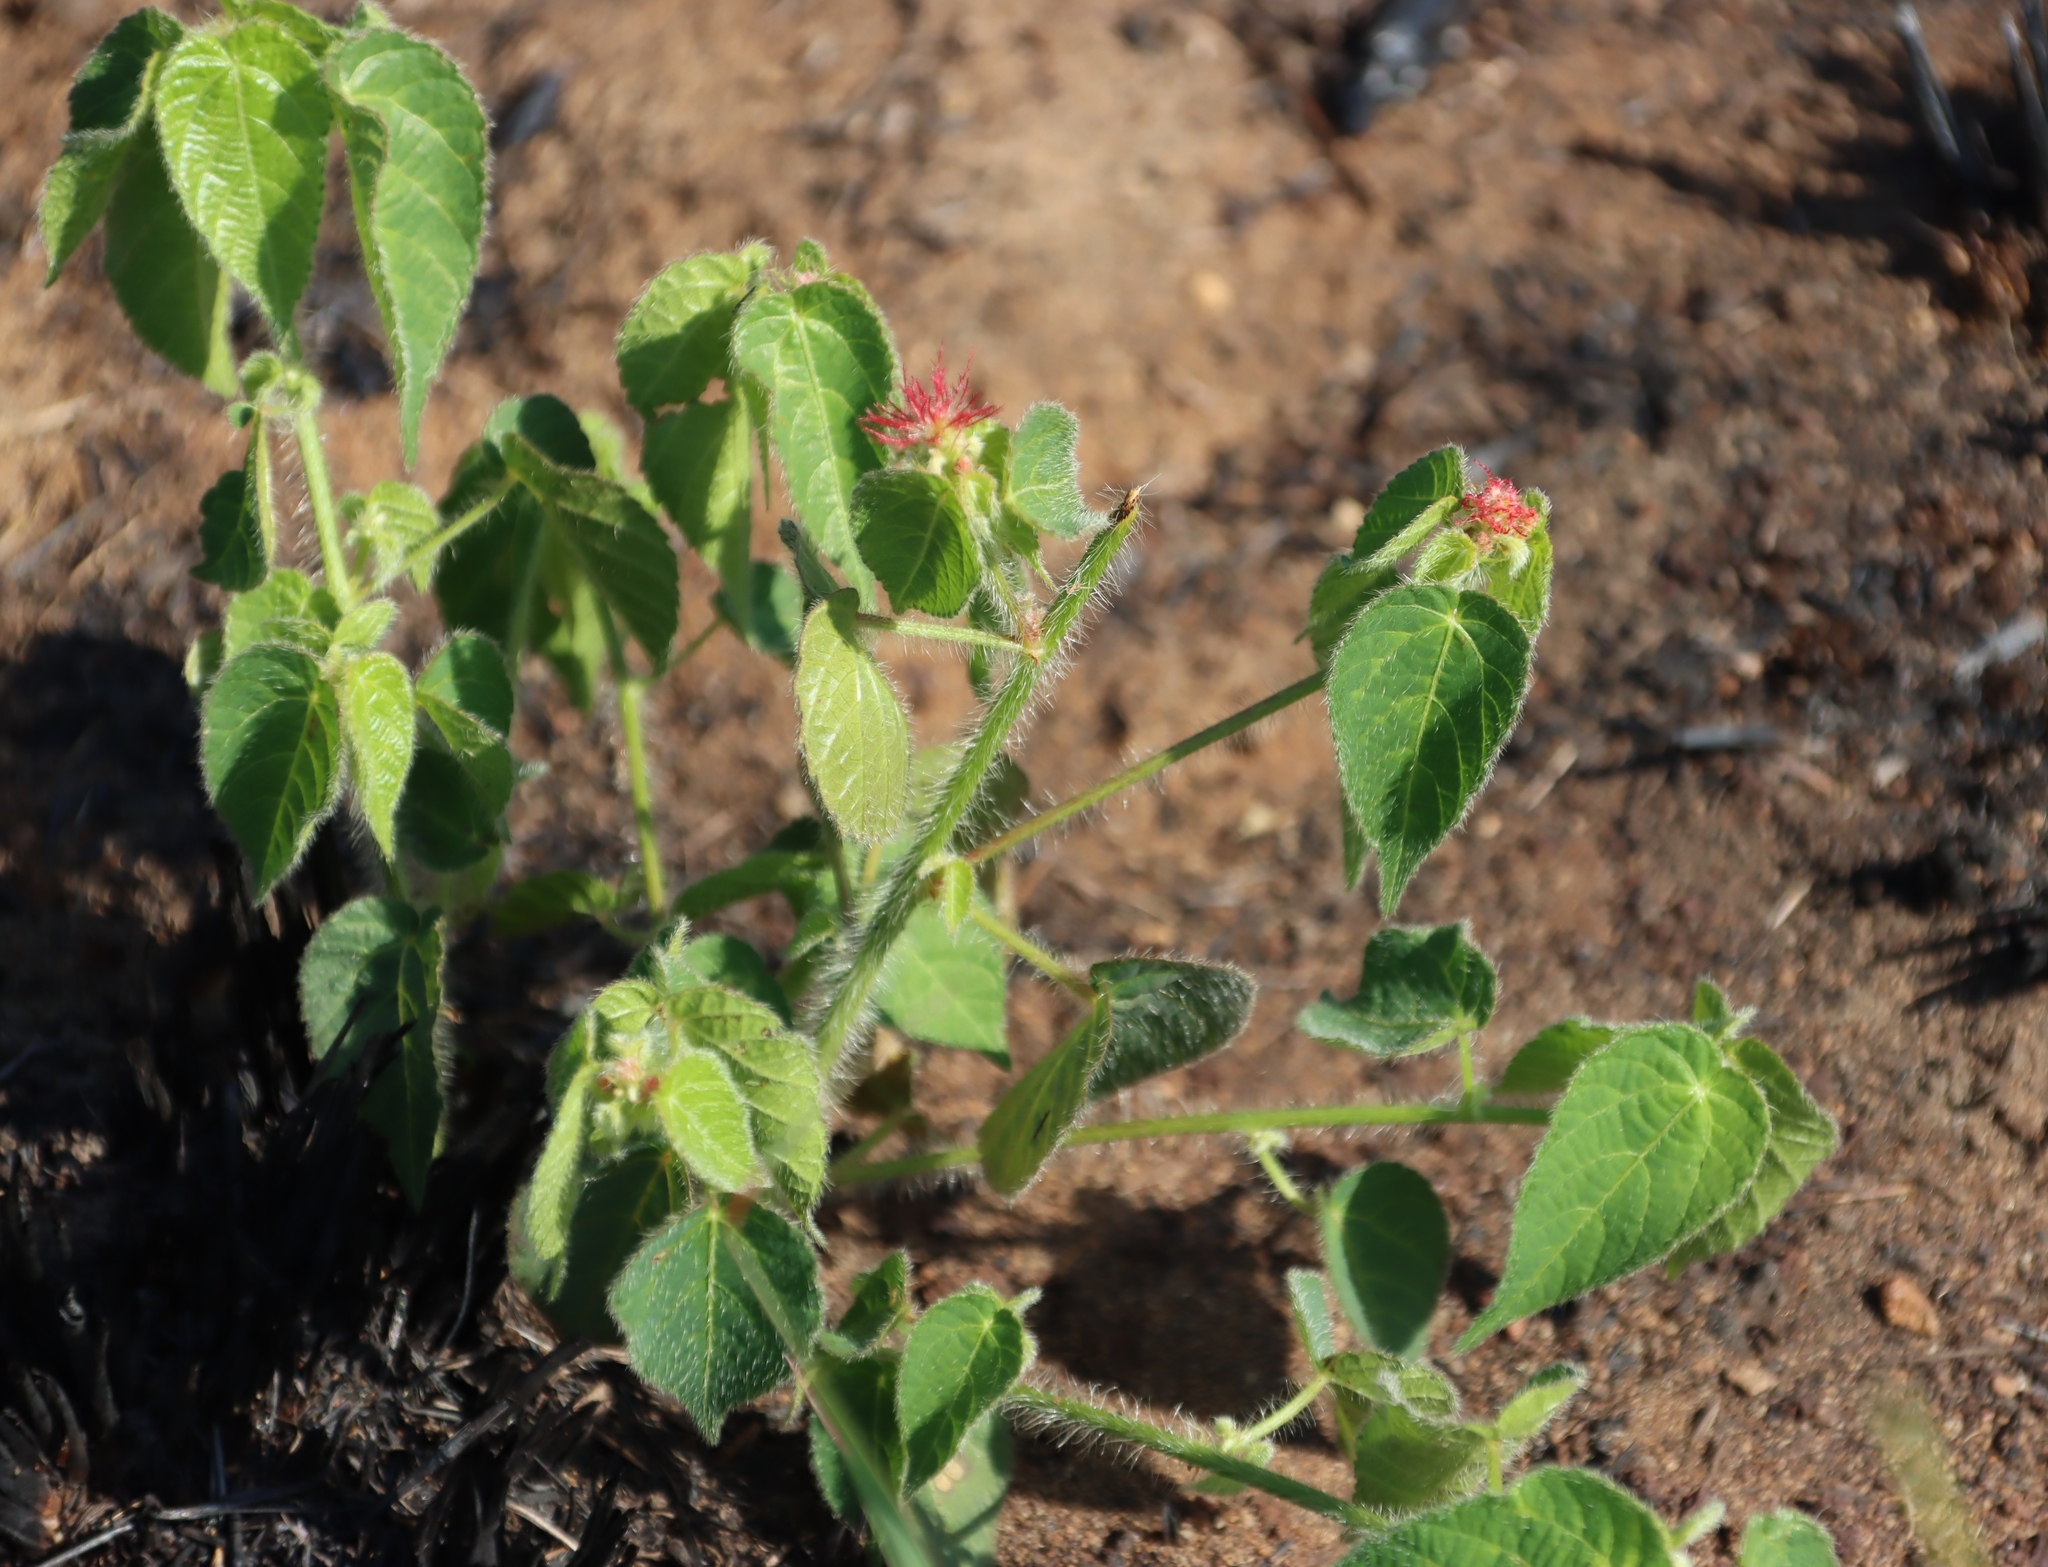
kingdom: Plantae
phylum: Tracheophyta
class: Magnoliopsida
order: Malpighiales
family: Euphorbiaceae
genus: Acalypha
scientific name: Acalypha petiolaris
